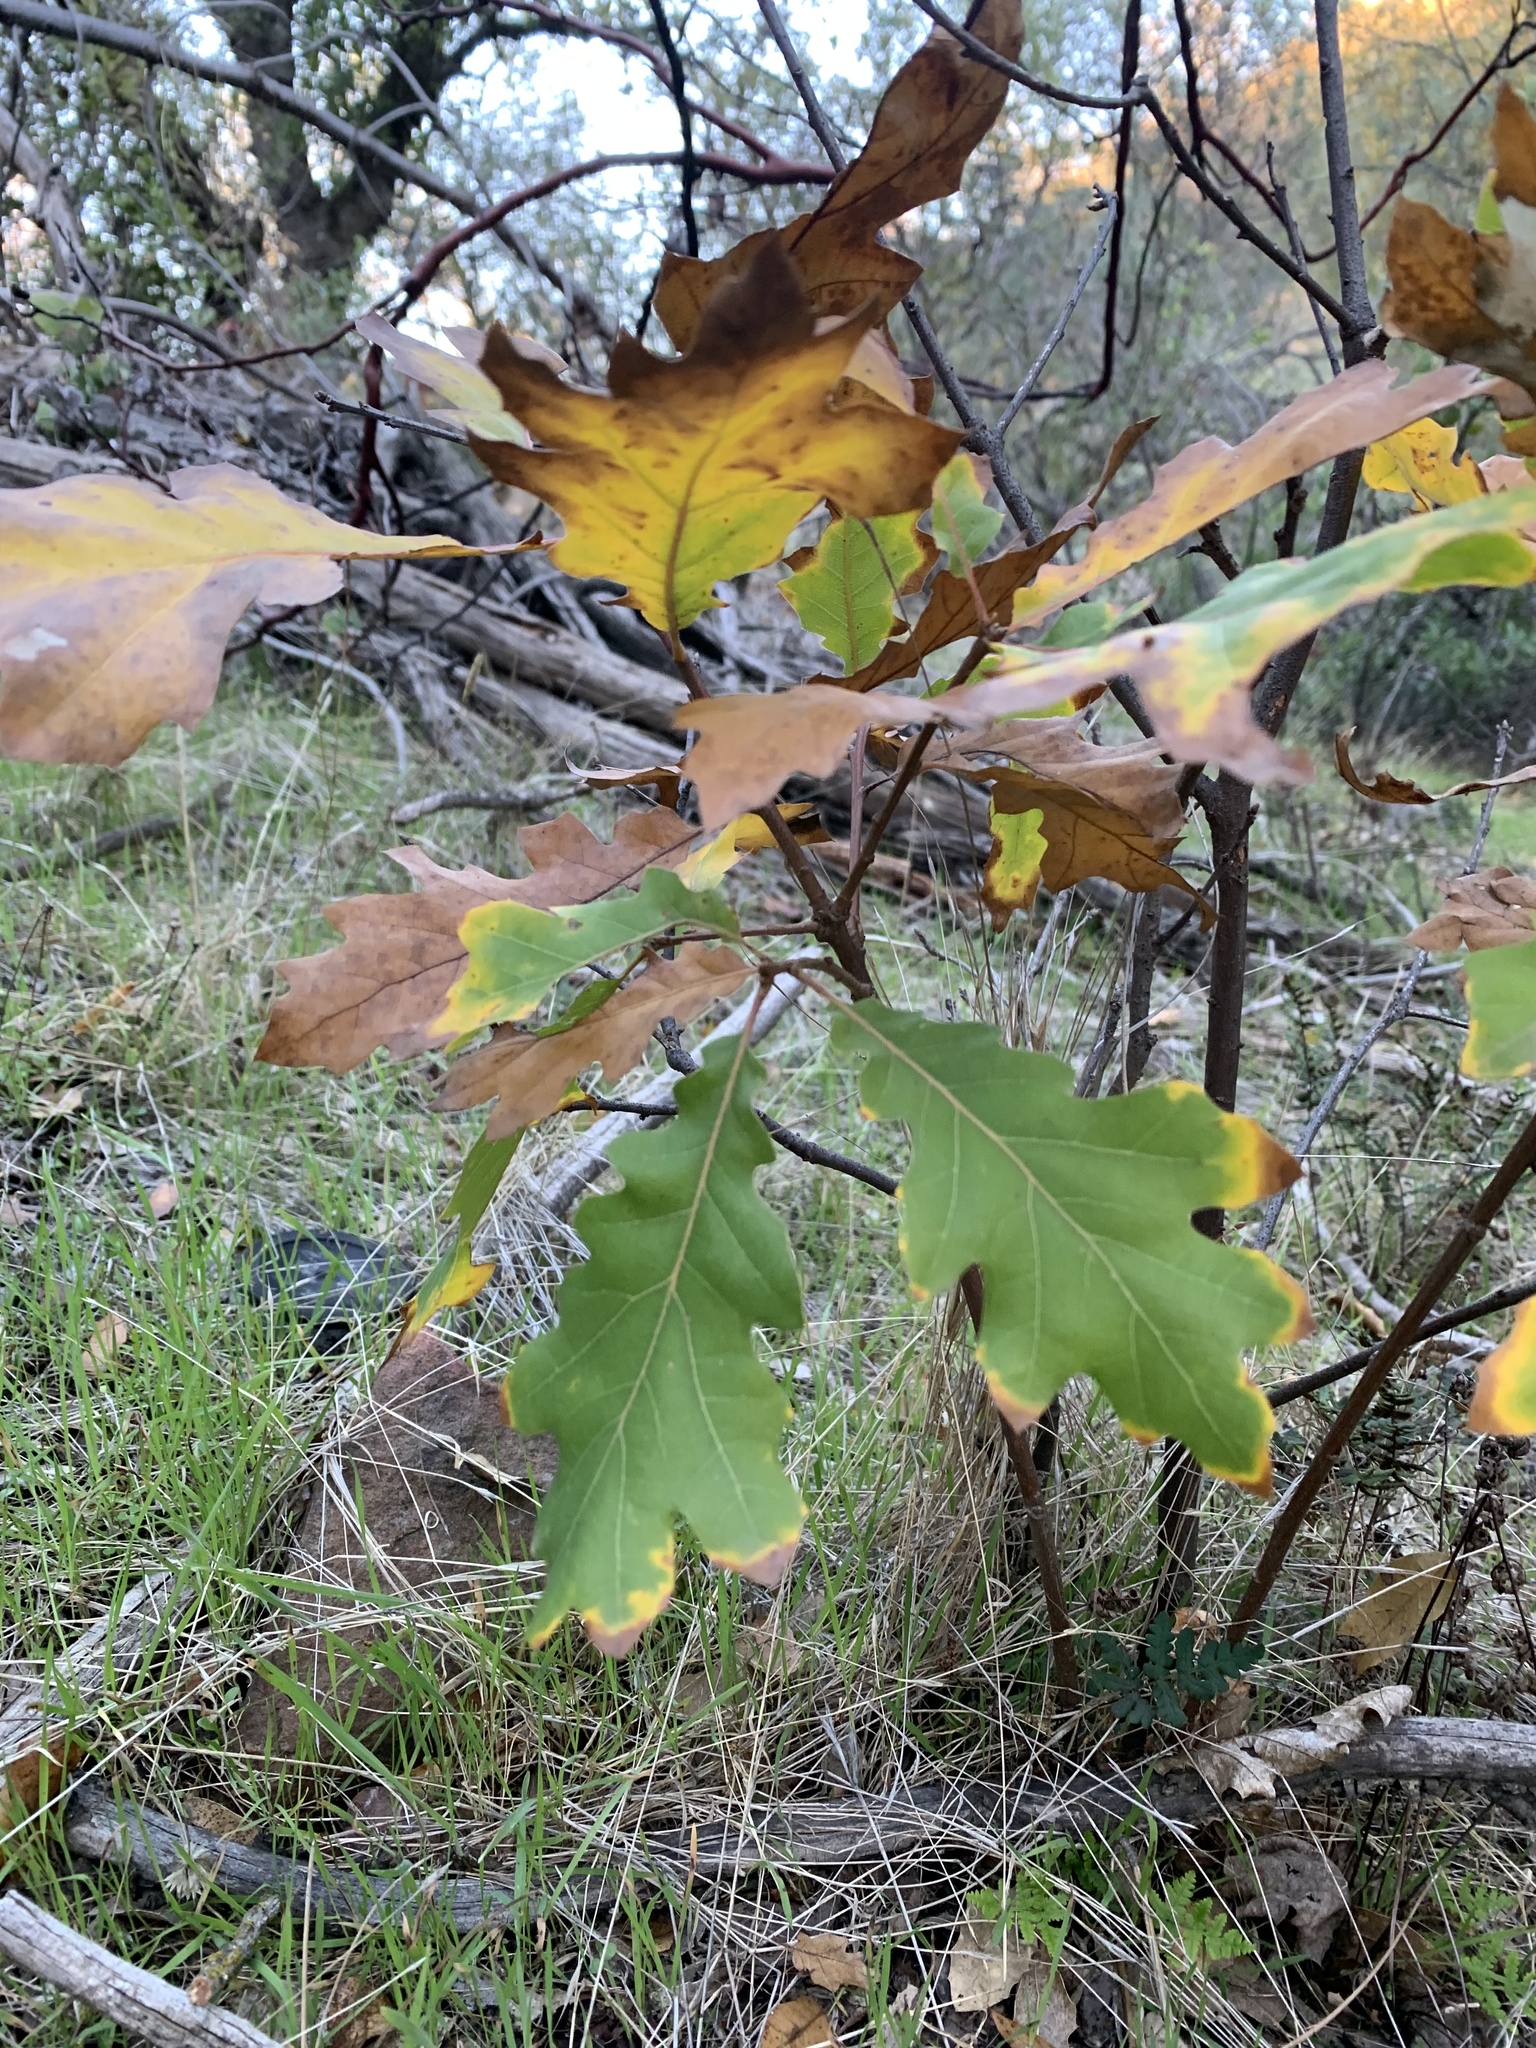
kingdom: Plantae
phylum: Tracheophyta
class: Magnoliopsida
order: Fagales
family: Fagaceae
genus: Quercus
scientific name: Quercus morehus
